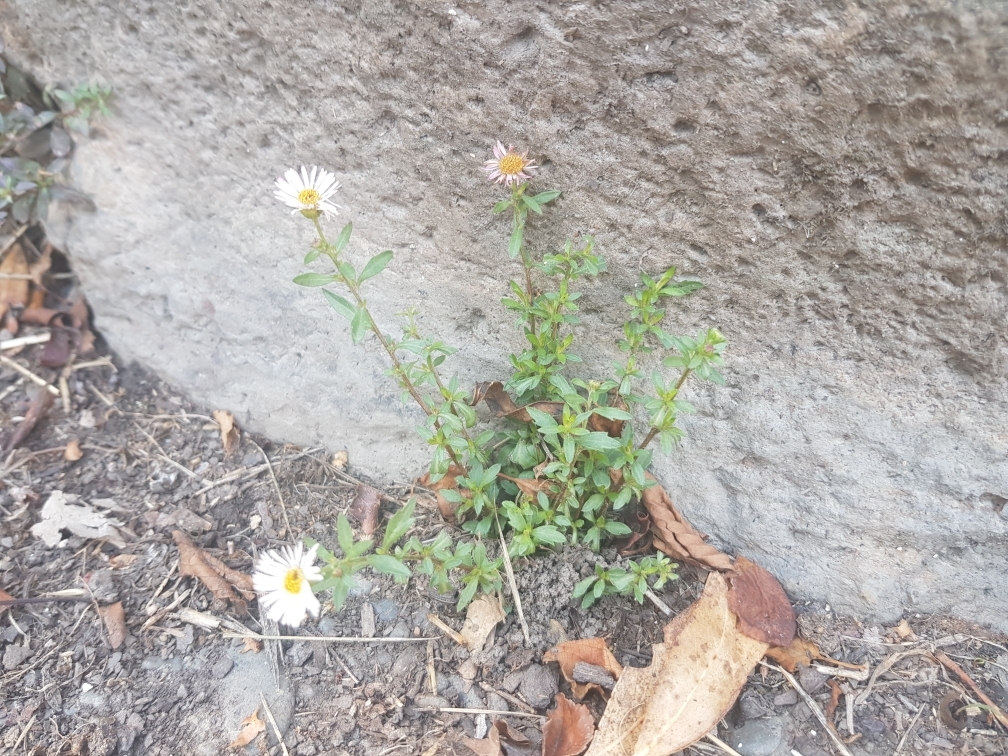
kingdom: Plantae
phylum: Tracheophyta
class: Magnoliopsida
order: Asterales
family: Asteraceae
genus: Erigeron
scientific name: Erigeron karvinskianus
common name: Mexican fleabane
